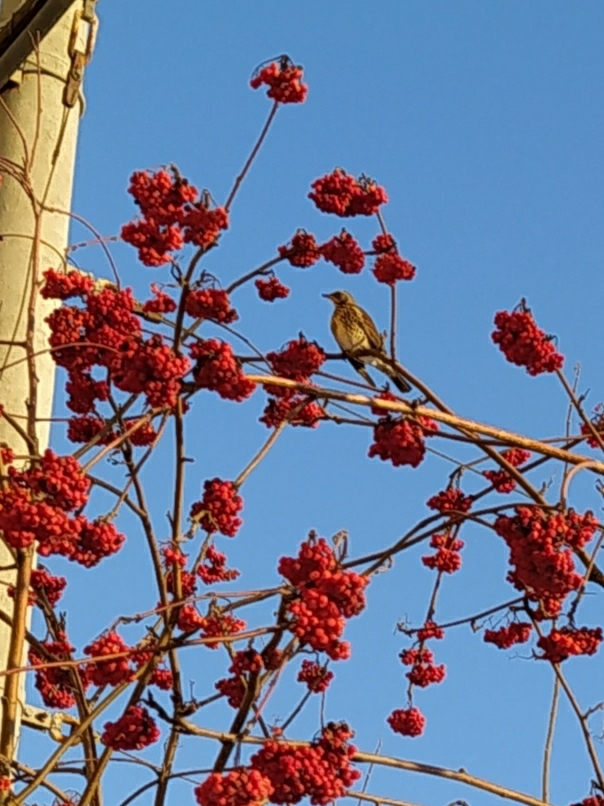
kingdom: Animalia
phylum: Chordata
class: Aves
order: Passeriformes
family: Turdidae
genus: Turdus
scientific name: Turdus pilaris
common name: Fieldfare
